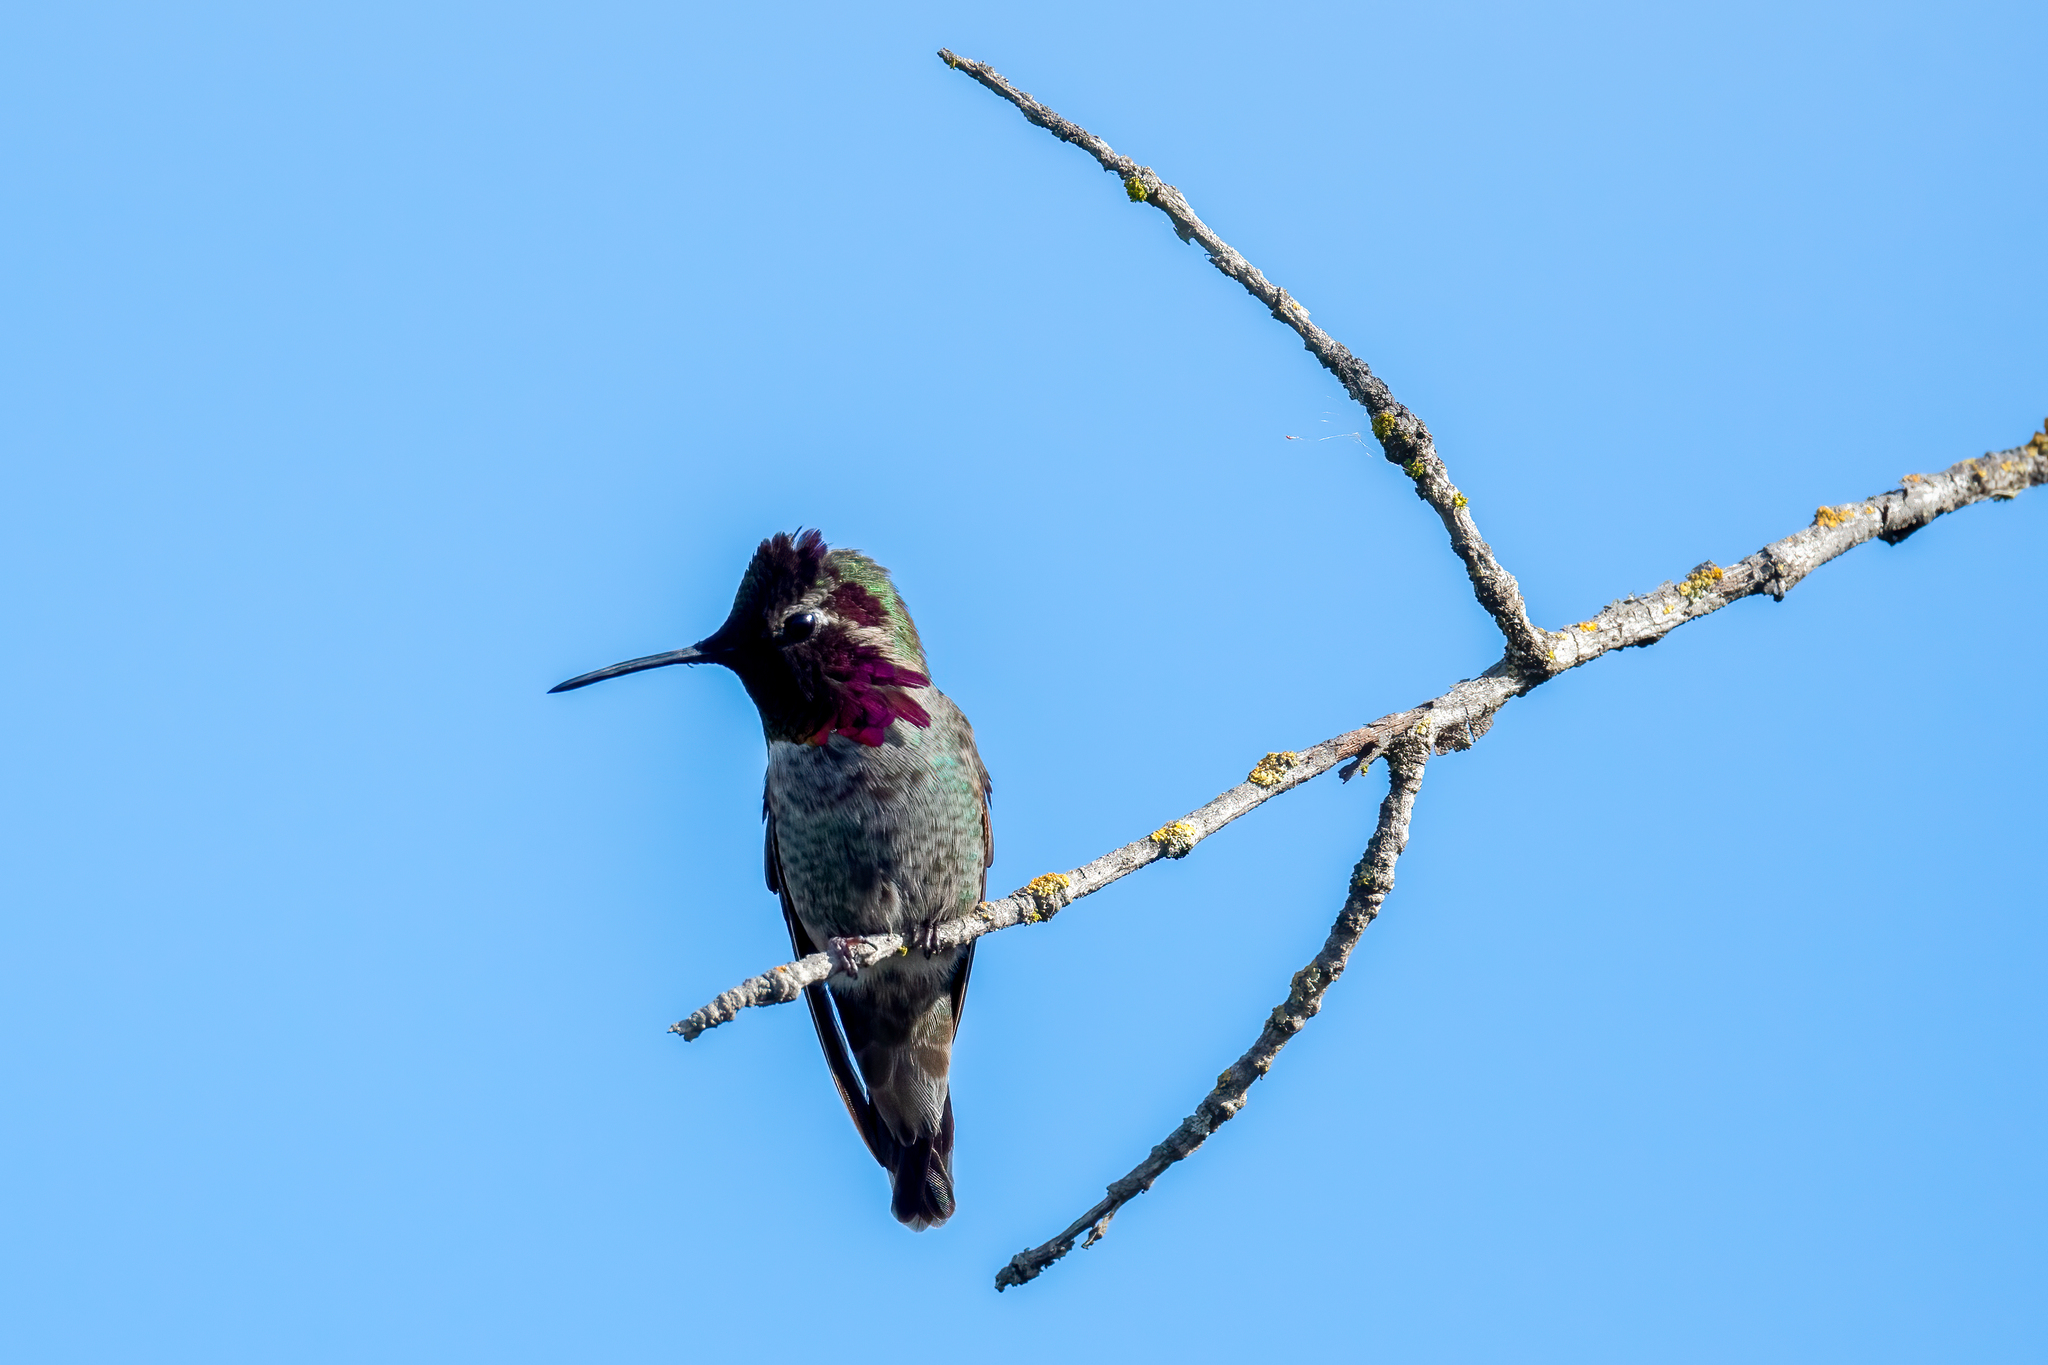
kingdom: Animalia
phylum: Chordata
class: Aves
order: Apodiformes
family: Trochilidae
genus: Calypte
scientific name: Calypte anna
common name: Anna's hummingbird
